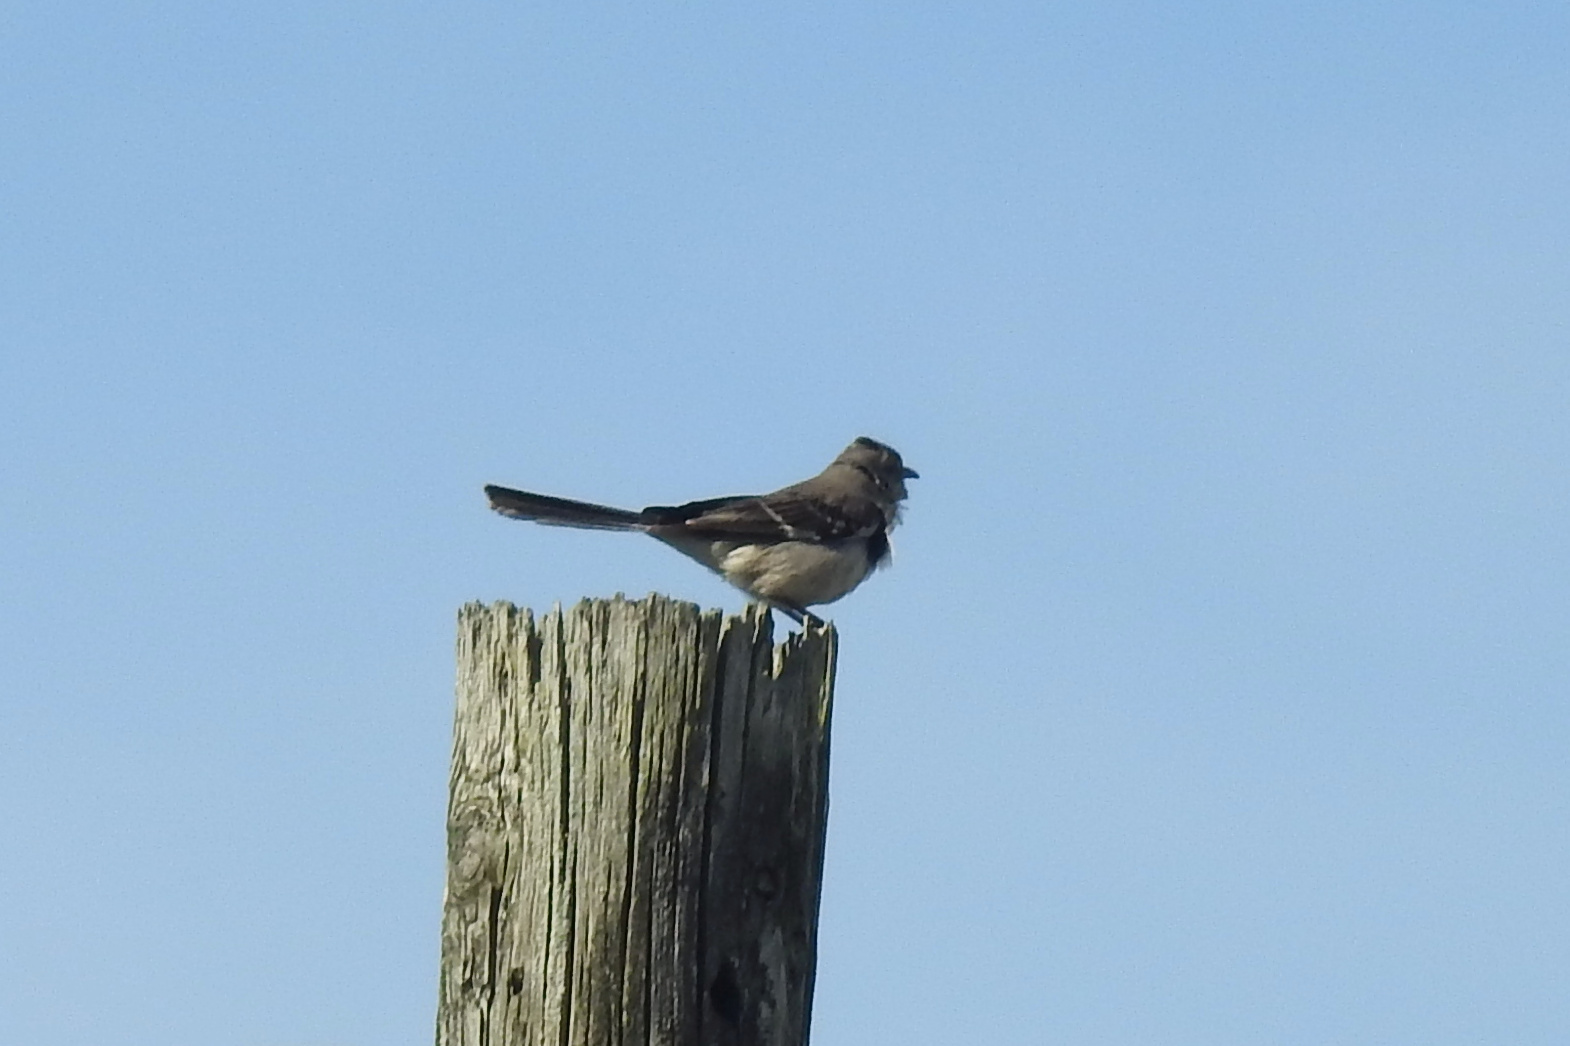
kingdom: Animalia
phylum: Chordata
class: Aves
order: Passeriformes
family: Mimidae
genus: Mimus
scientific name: Mimus polyglottos
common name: Northern mockingbird
